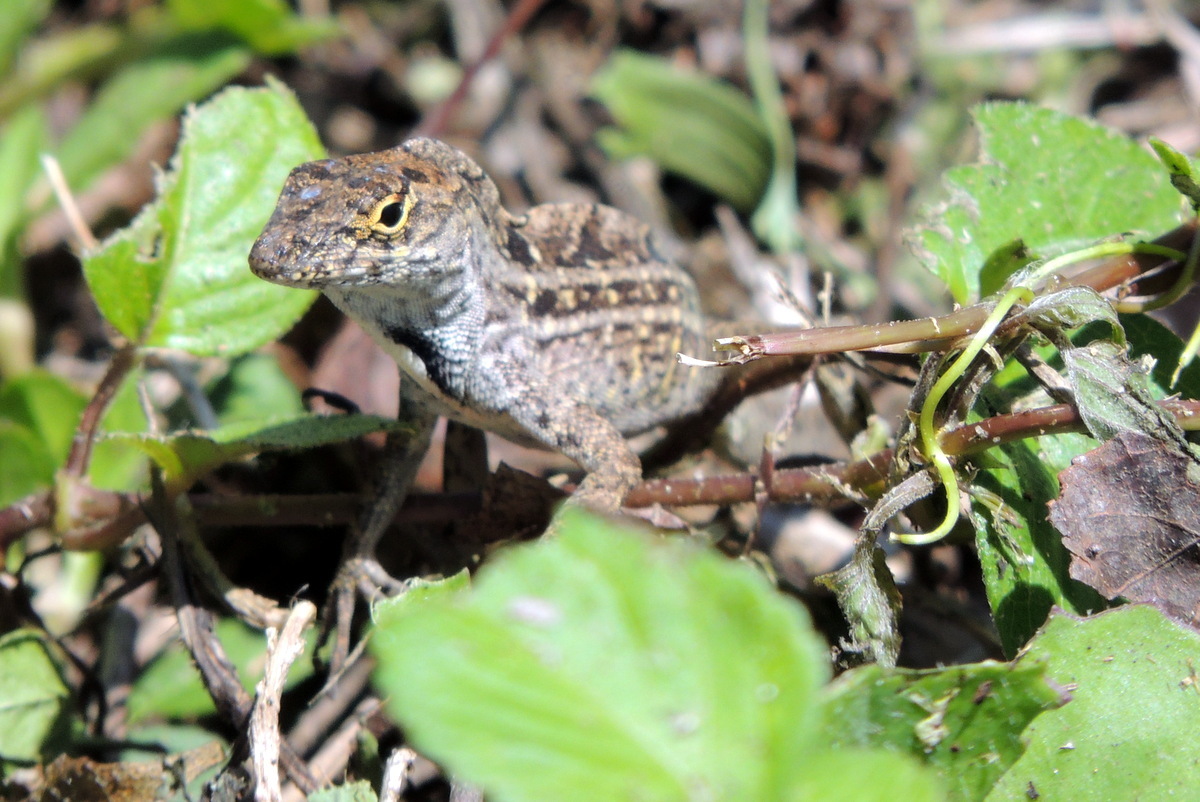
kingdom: Animalia
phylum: Chordata
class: Squamata
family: Dactyloidae
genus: Anolis
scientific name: Anolis sagrei
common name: Brown anole
